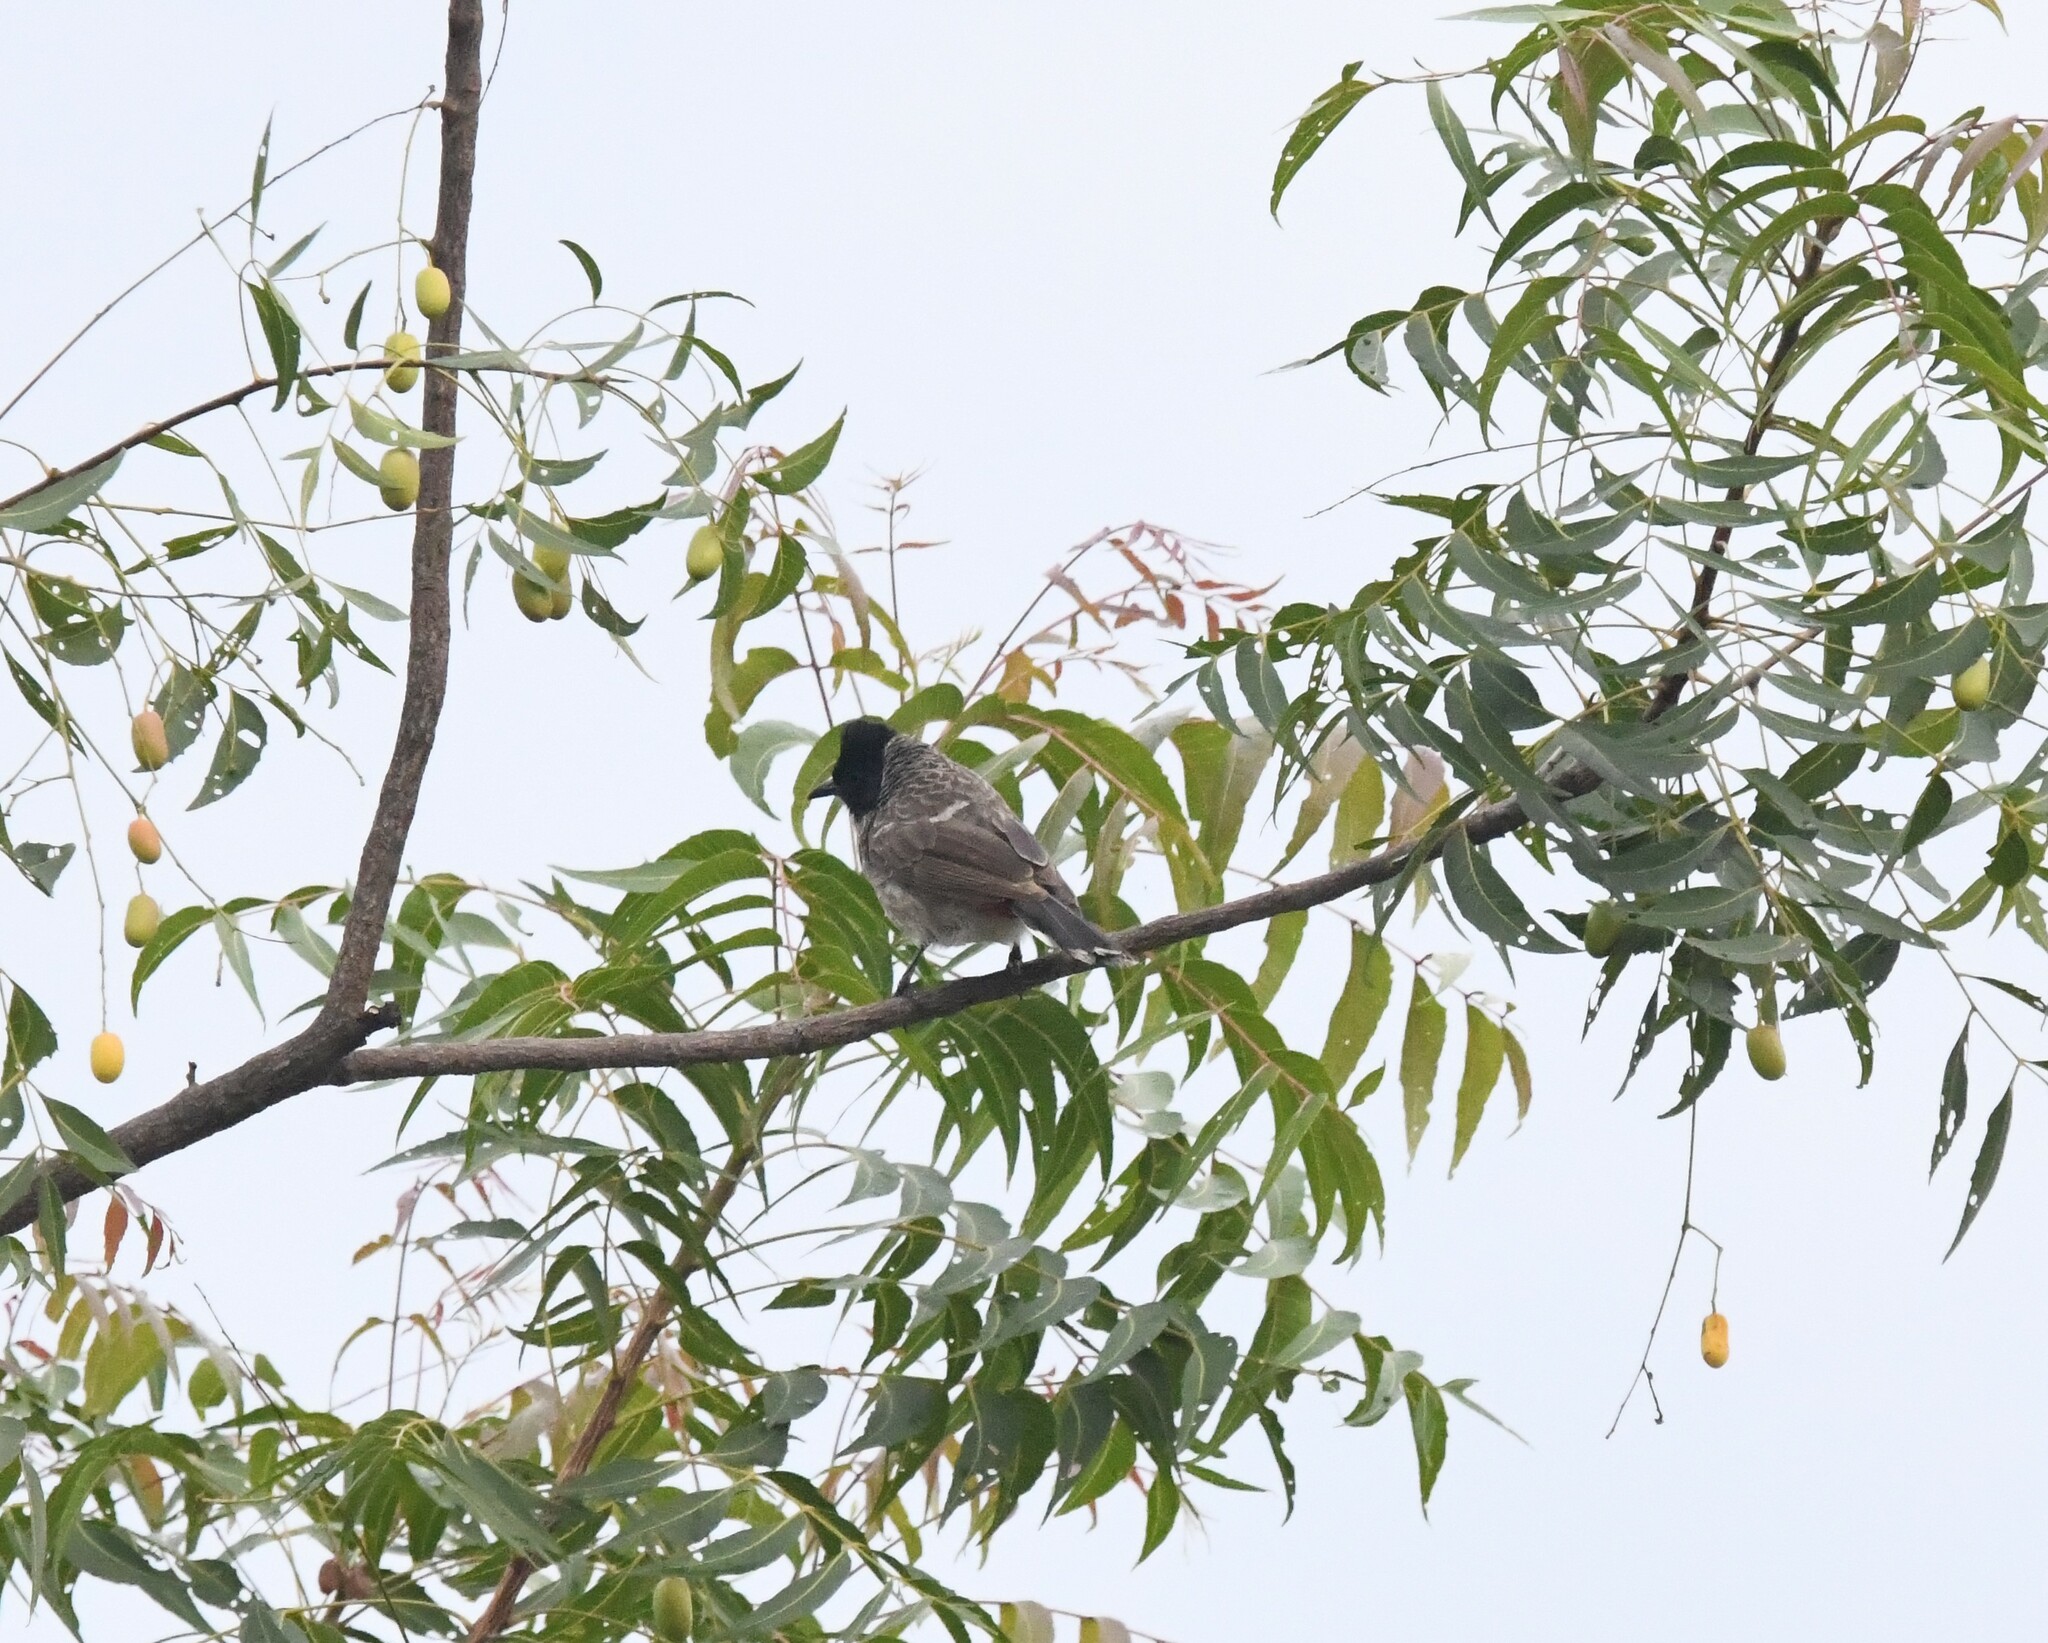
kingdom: Animalia
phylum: Chordata
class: Aves
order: Passeriformes
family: Pycnonotidae
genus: Pycnonotus
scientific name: Pycnonotus cafer
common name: Red-vented bulbul
